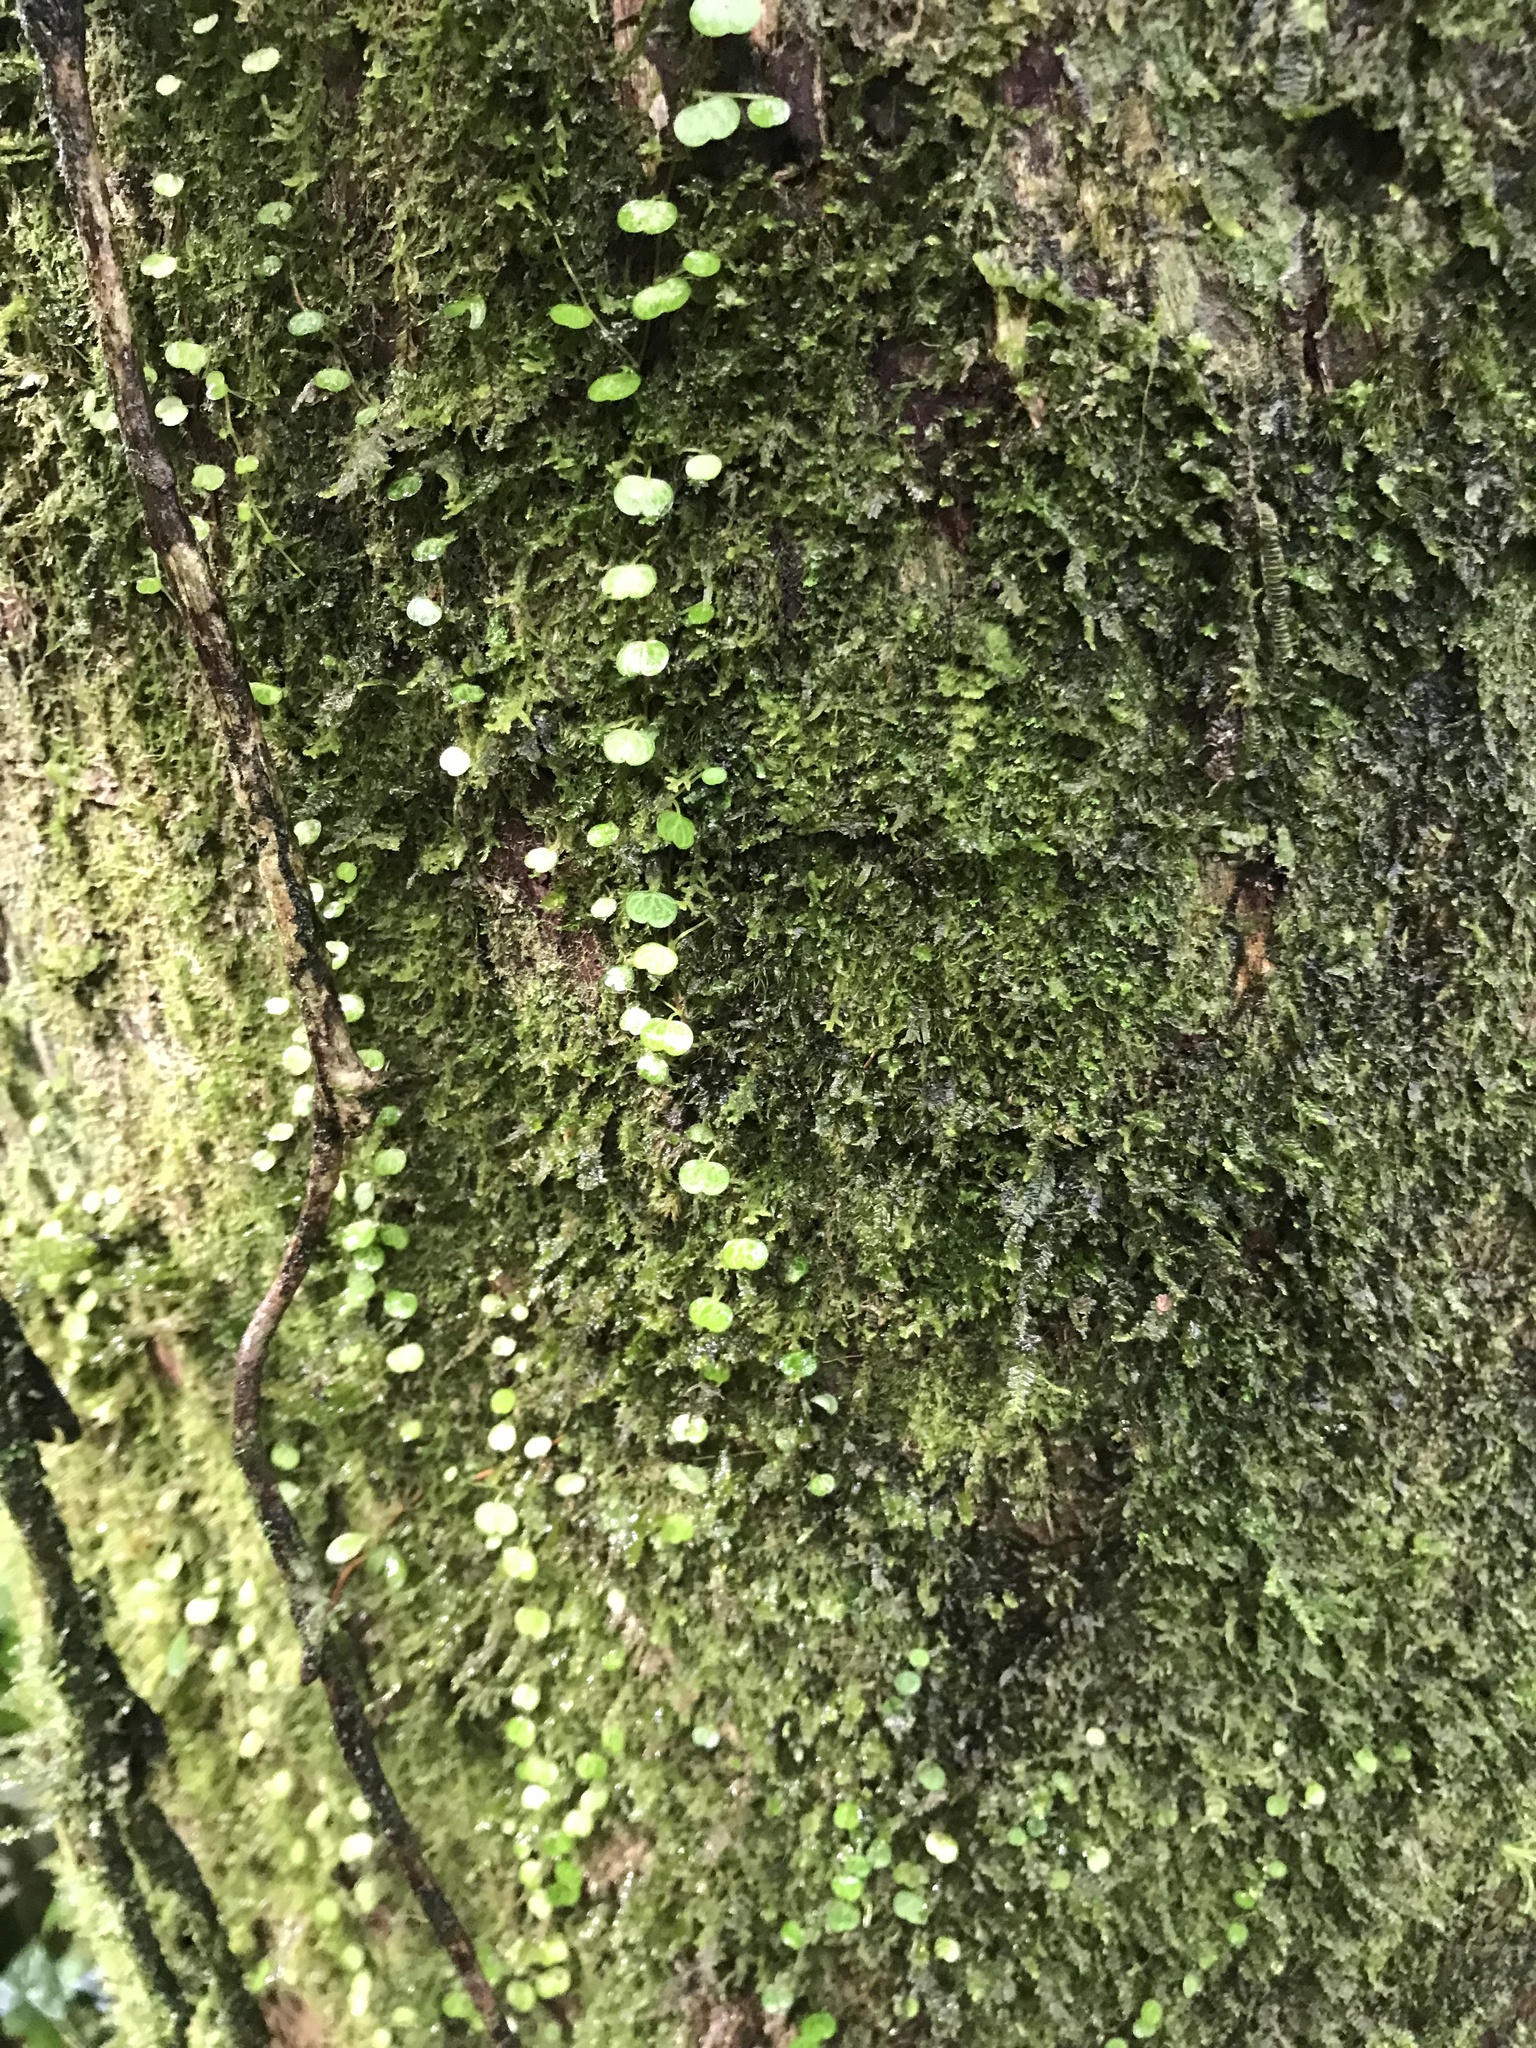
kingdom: Plantae
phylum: Tracheophyta
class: Magnoliopsida
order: Piperales
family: Piperaceae
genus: Peperomia
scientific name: Peperomia emarginella
